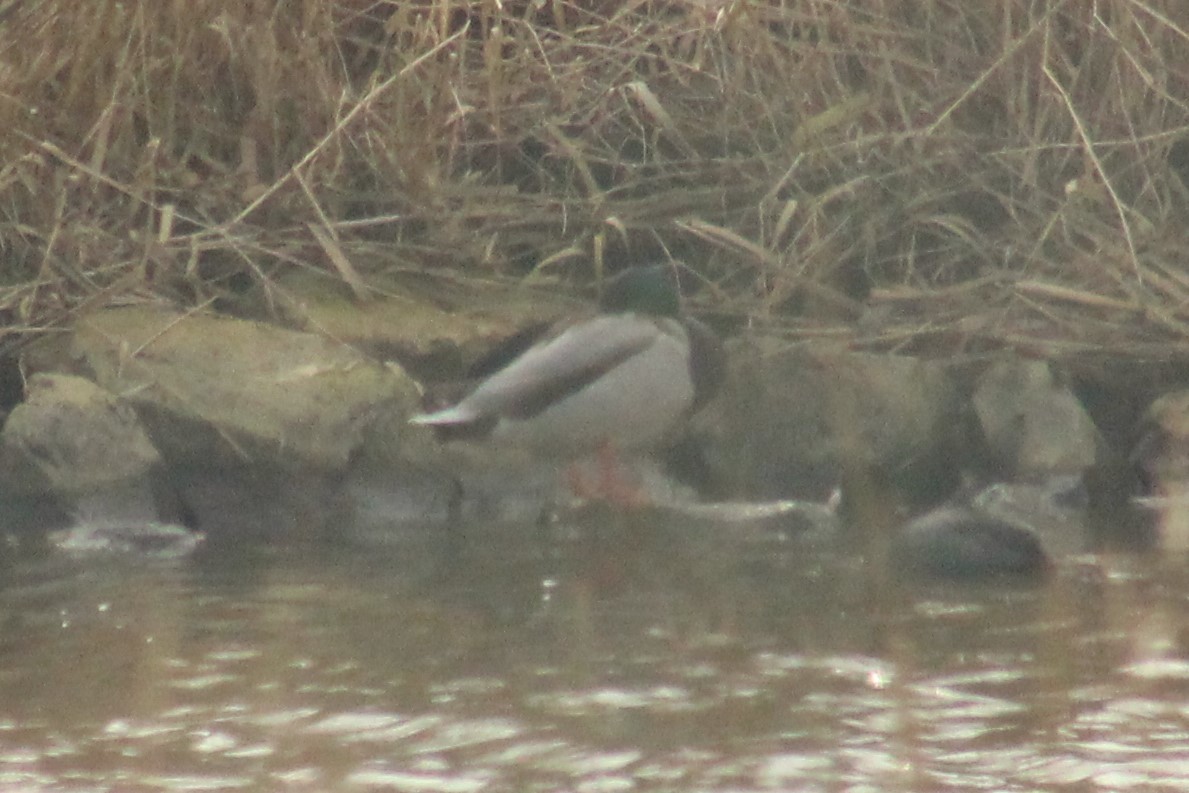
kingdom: Animalia
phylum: Chordata
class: Aves
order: Anseriformes
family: Anatidae
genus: Anas
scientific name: Anas platyrhynchos
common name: Mallard
